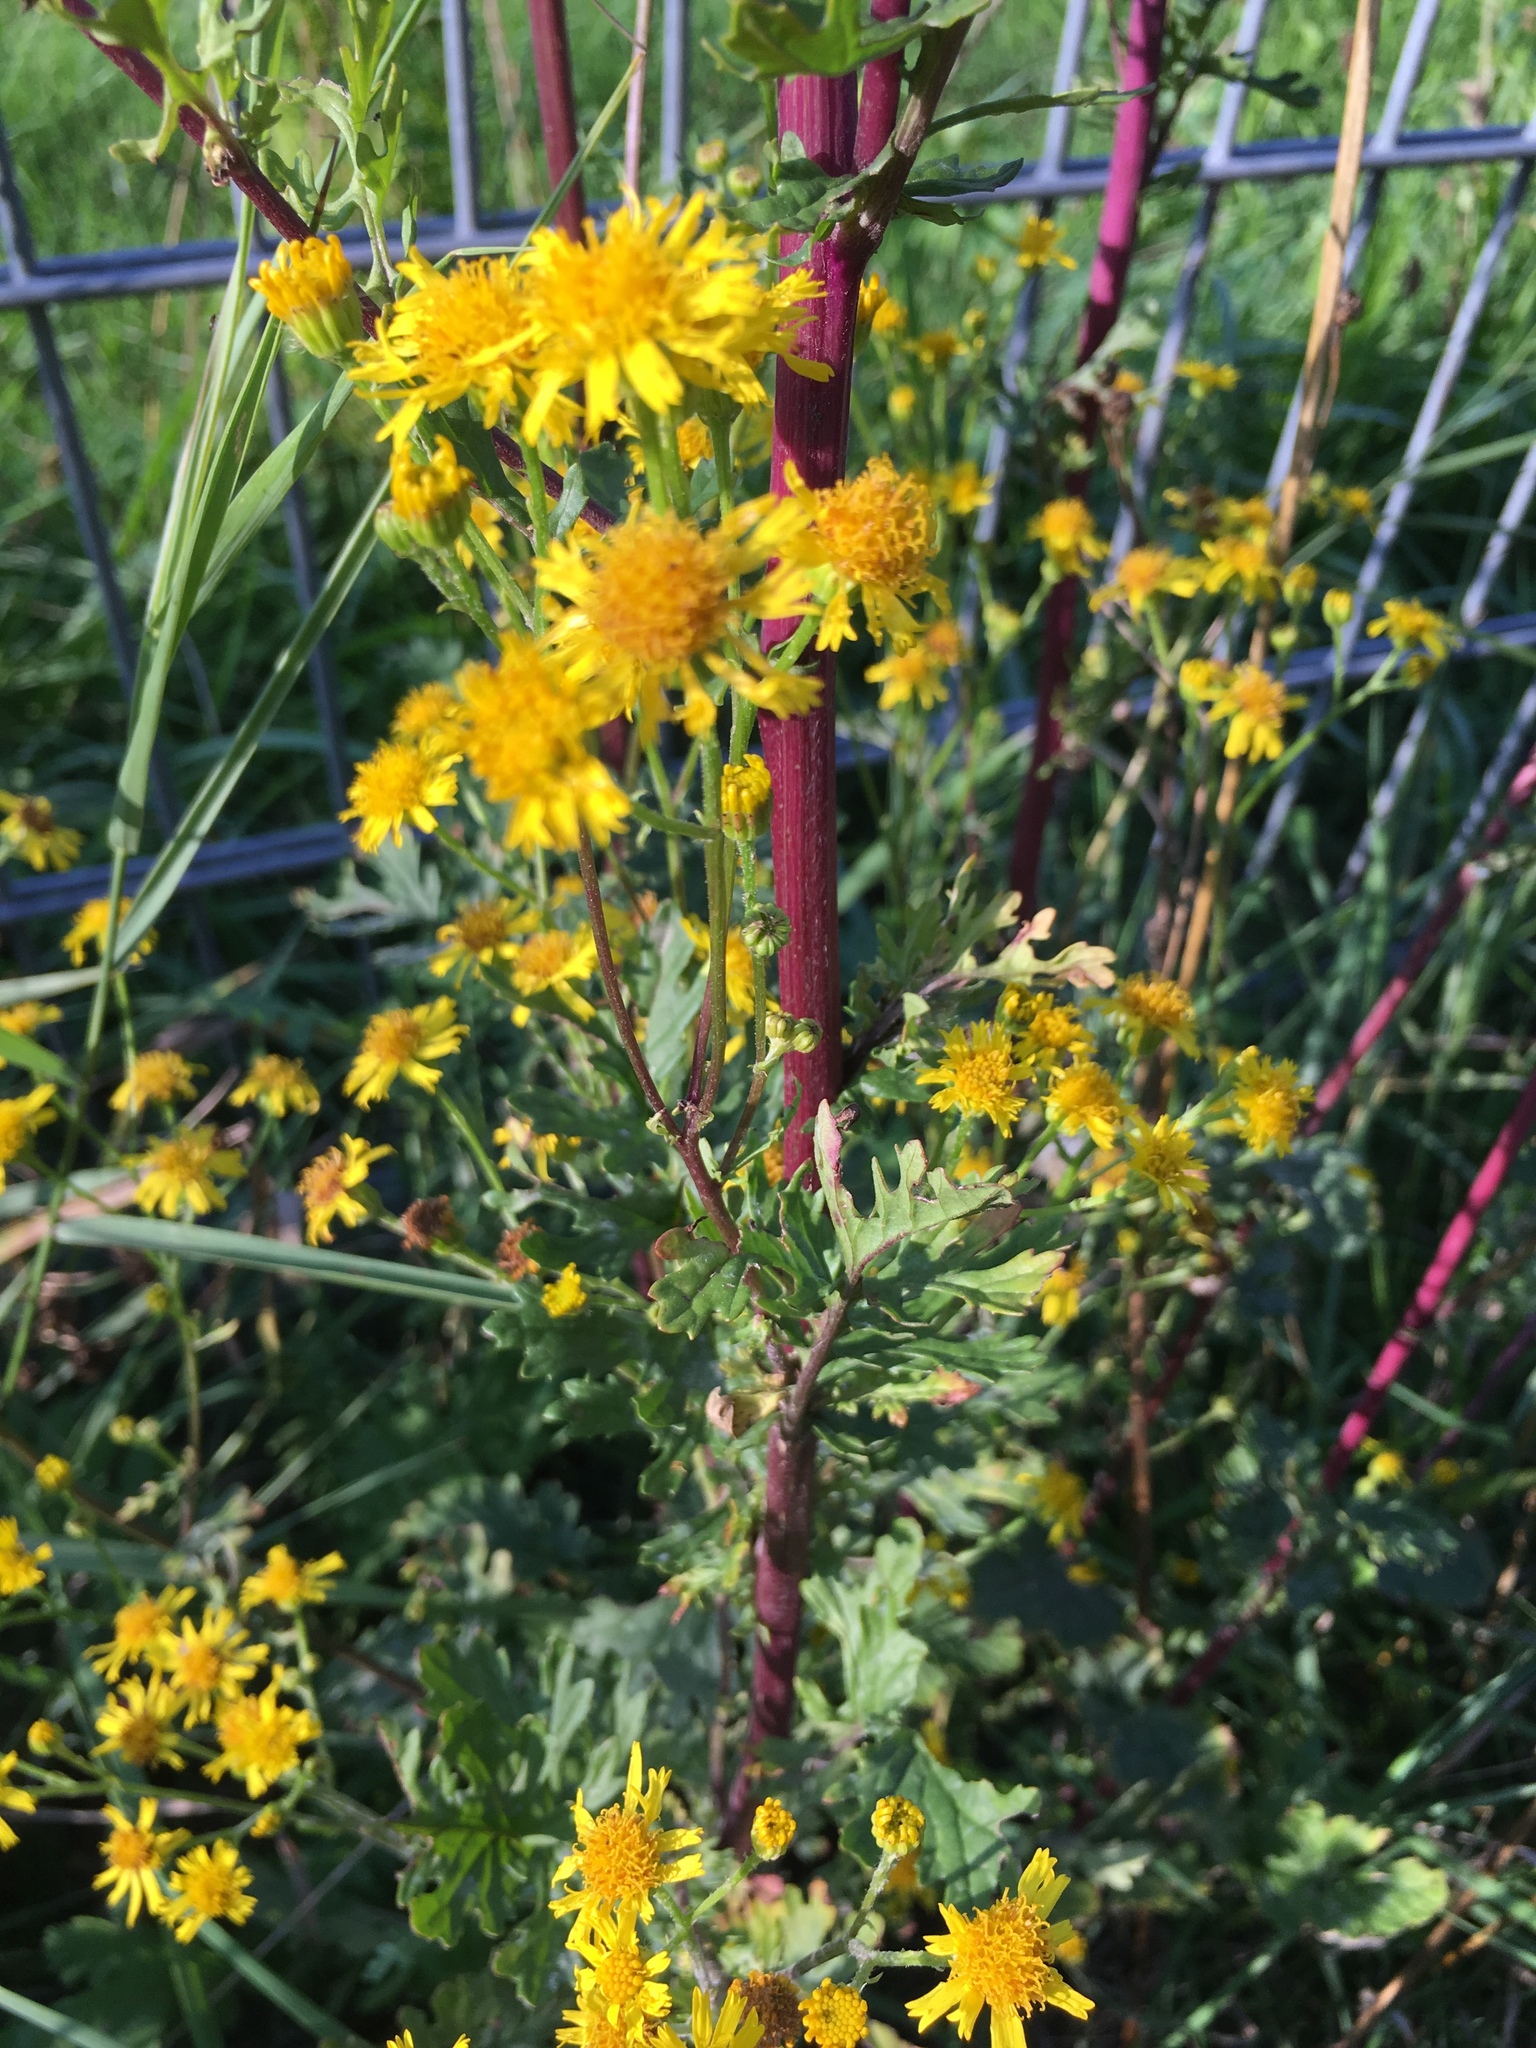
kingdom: Plantae
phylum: Tracheophyta
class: Magnoliopsida
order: Asterales
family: Asteraceae
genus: Jacobaea
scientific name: Jacobaea vulgaris
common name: Stinking willie
